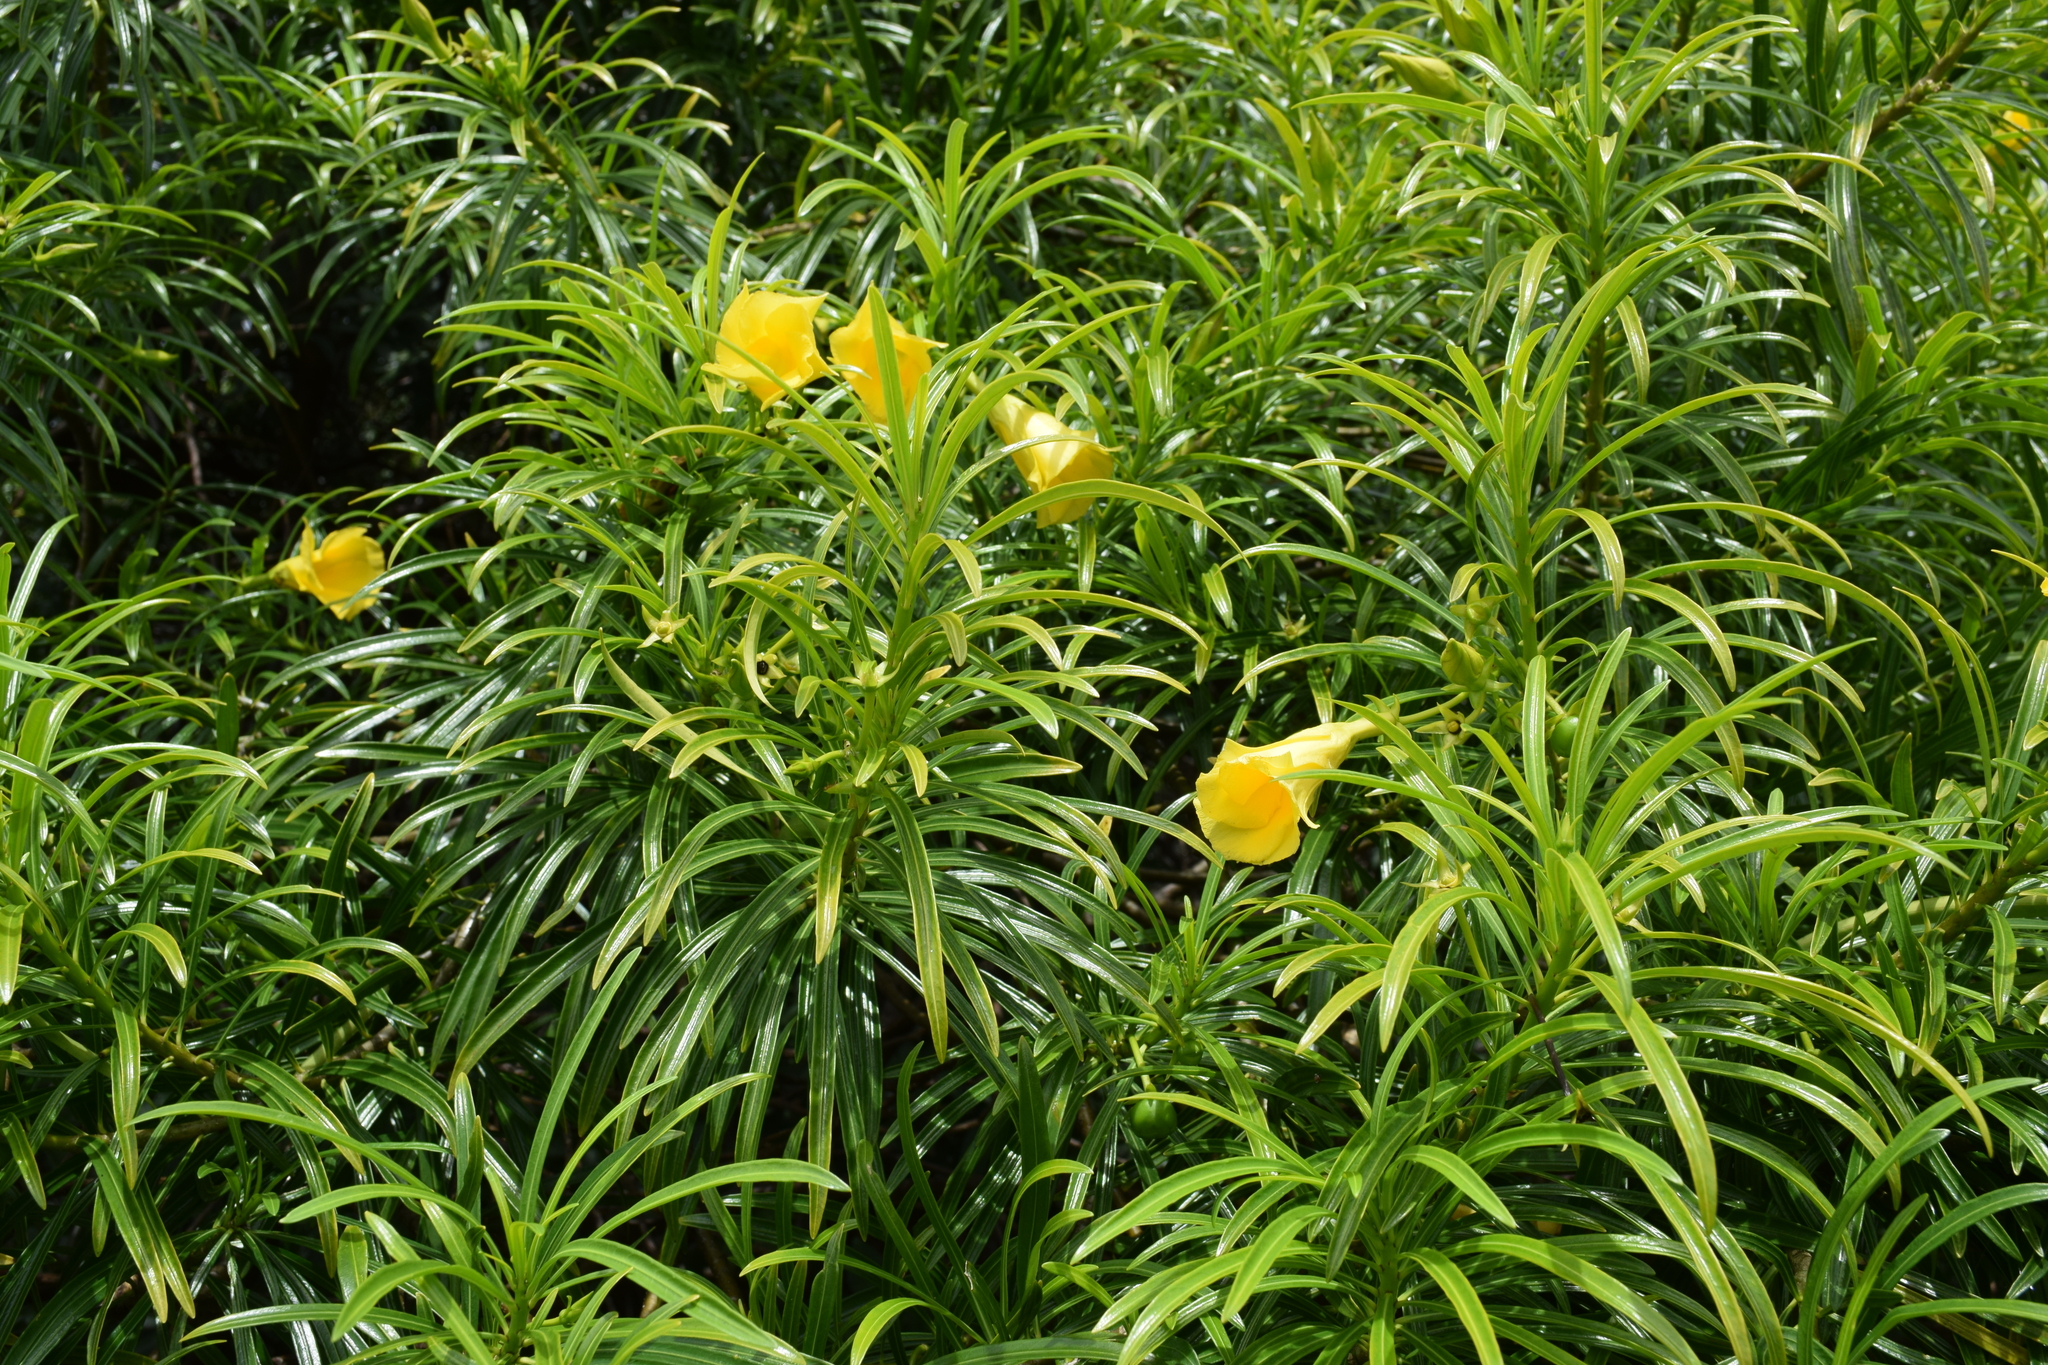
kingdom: Plantae
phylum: Tracheophyta
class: Magnoliopsida
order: Gentianales
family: Apocynaceae
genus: Cascabela
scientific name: Cascabela thevetia
